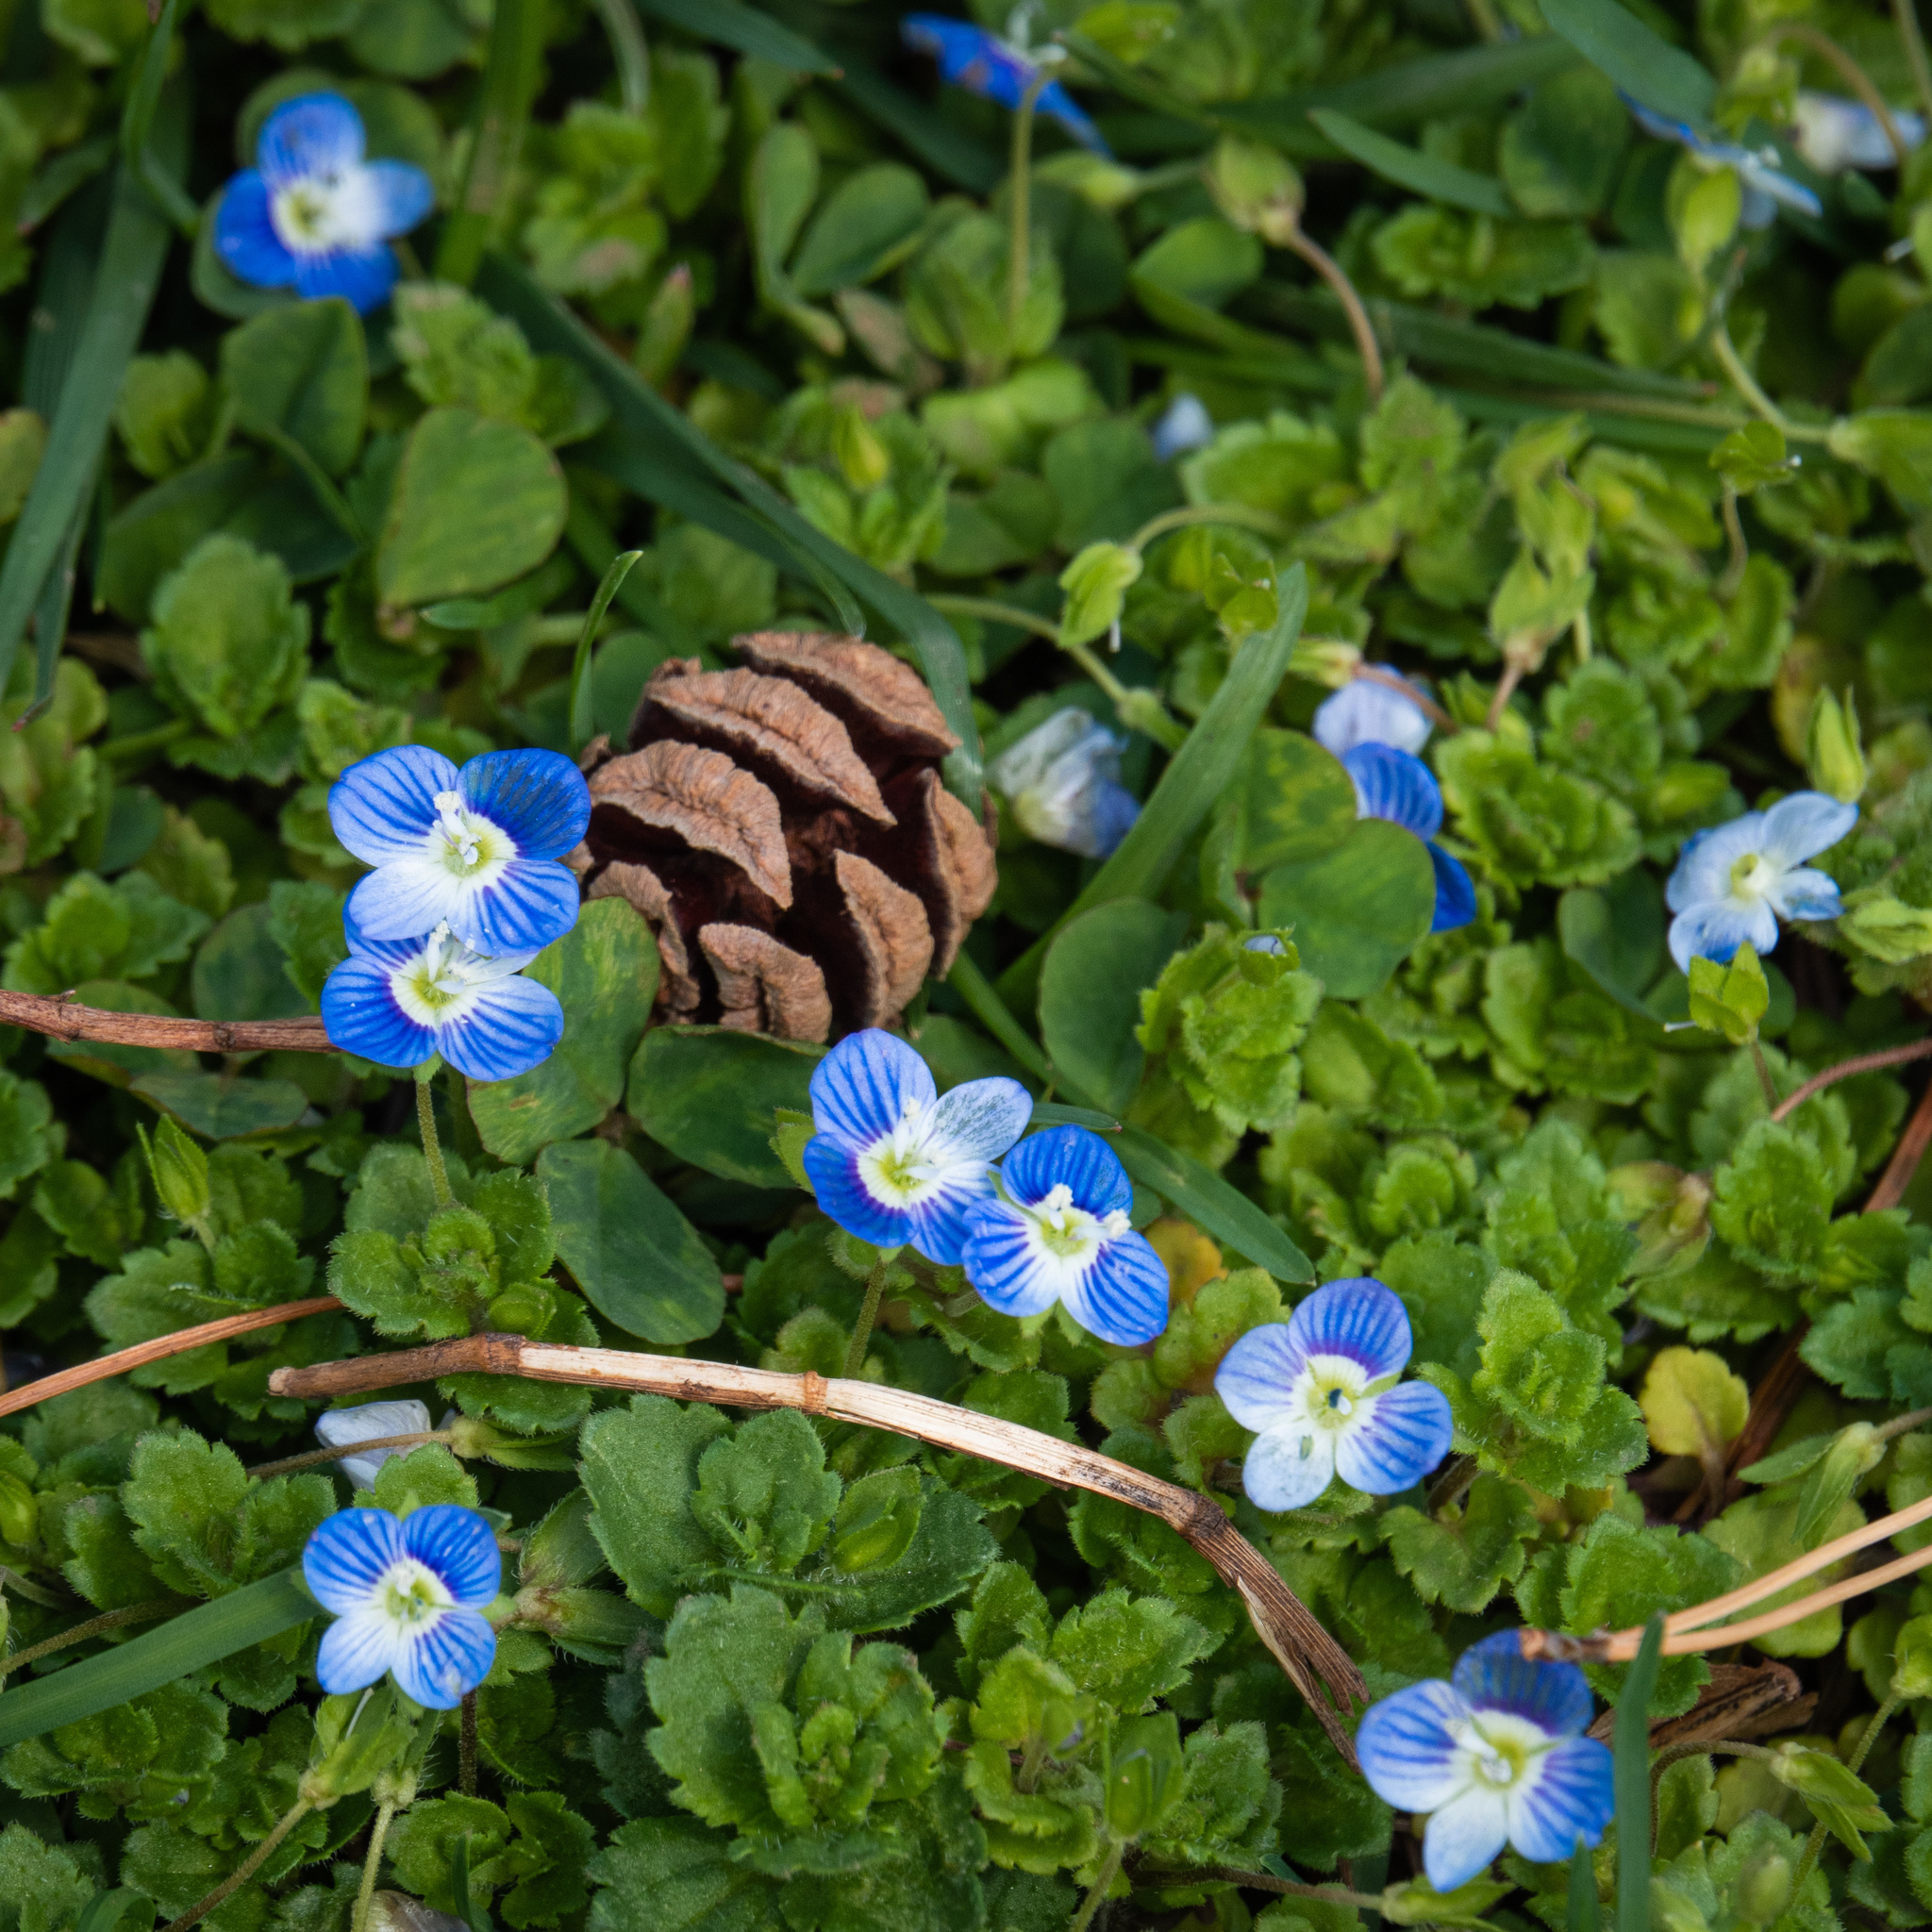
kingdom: Plantae
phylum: Tracheophyta
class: Magnoliopsida
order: Lamiales
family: Plantaginaceae
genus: Veronica
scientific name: Veronica persica
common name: Common field-speedwell
